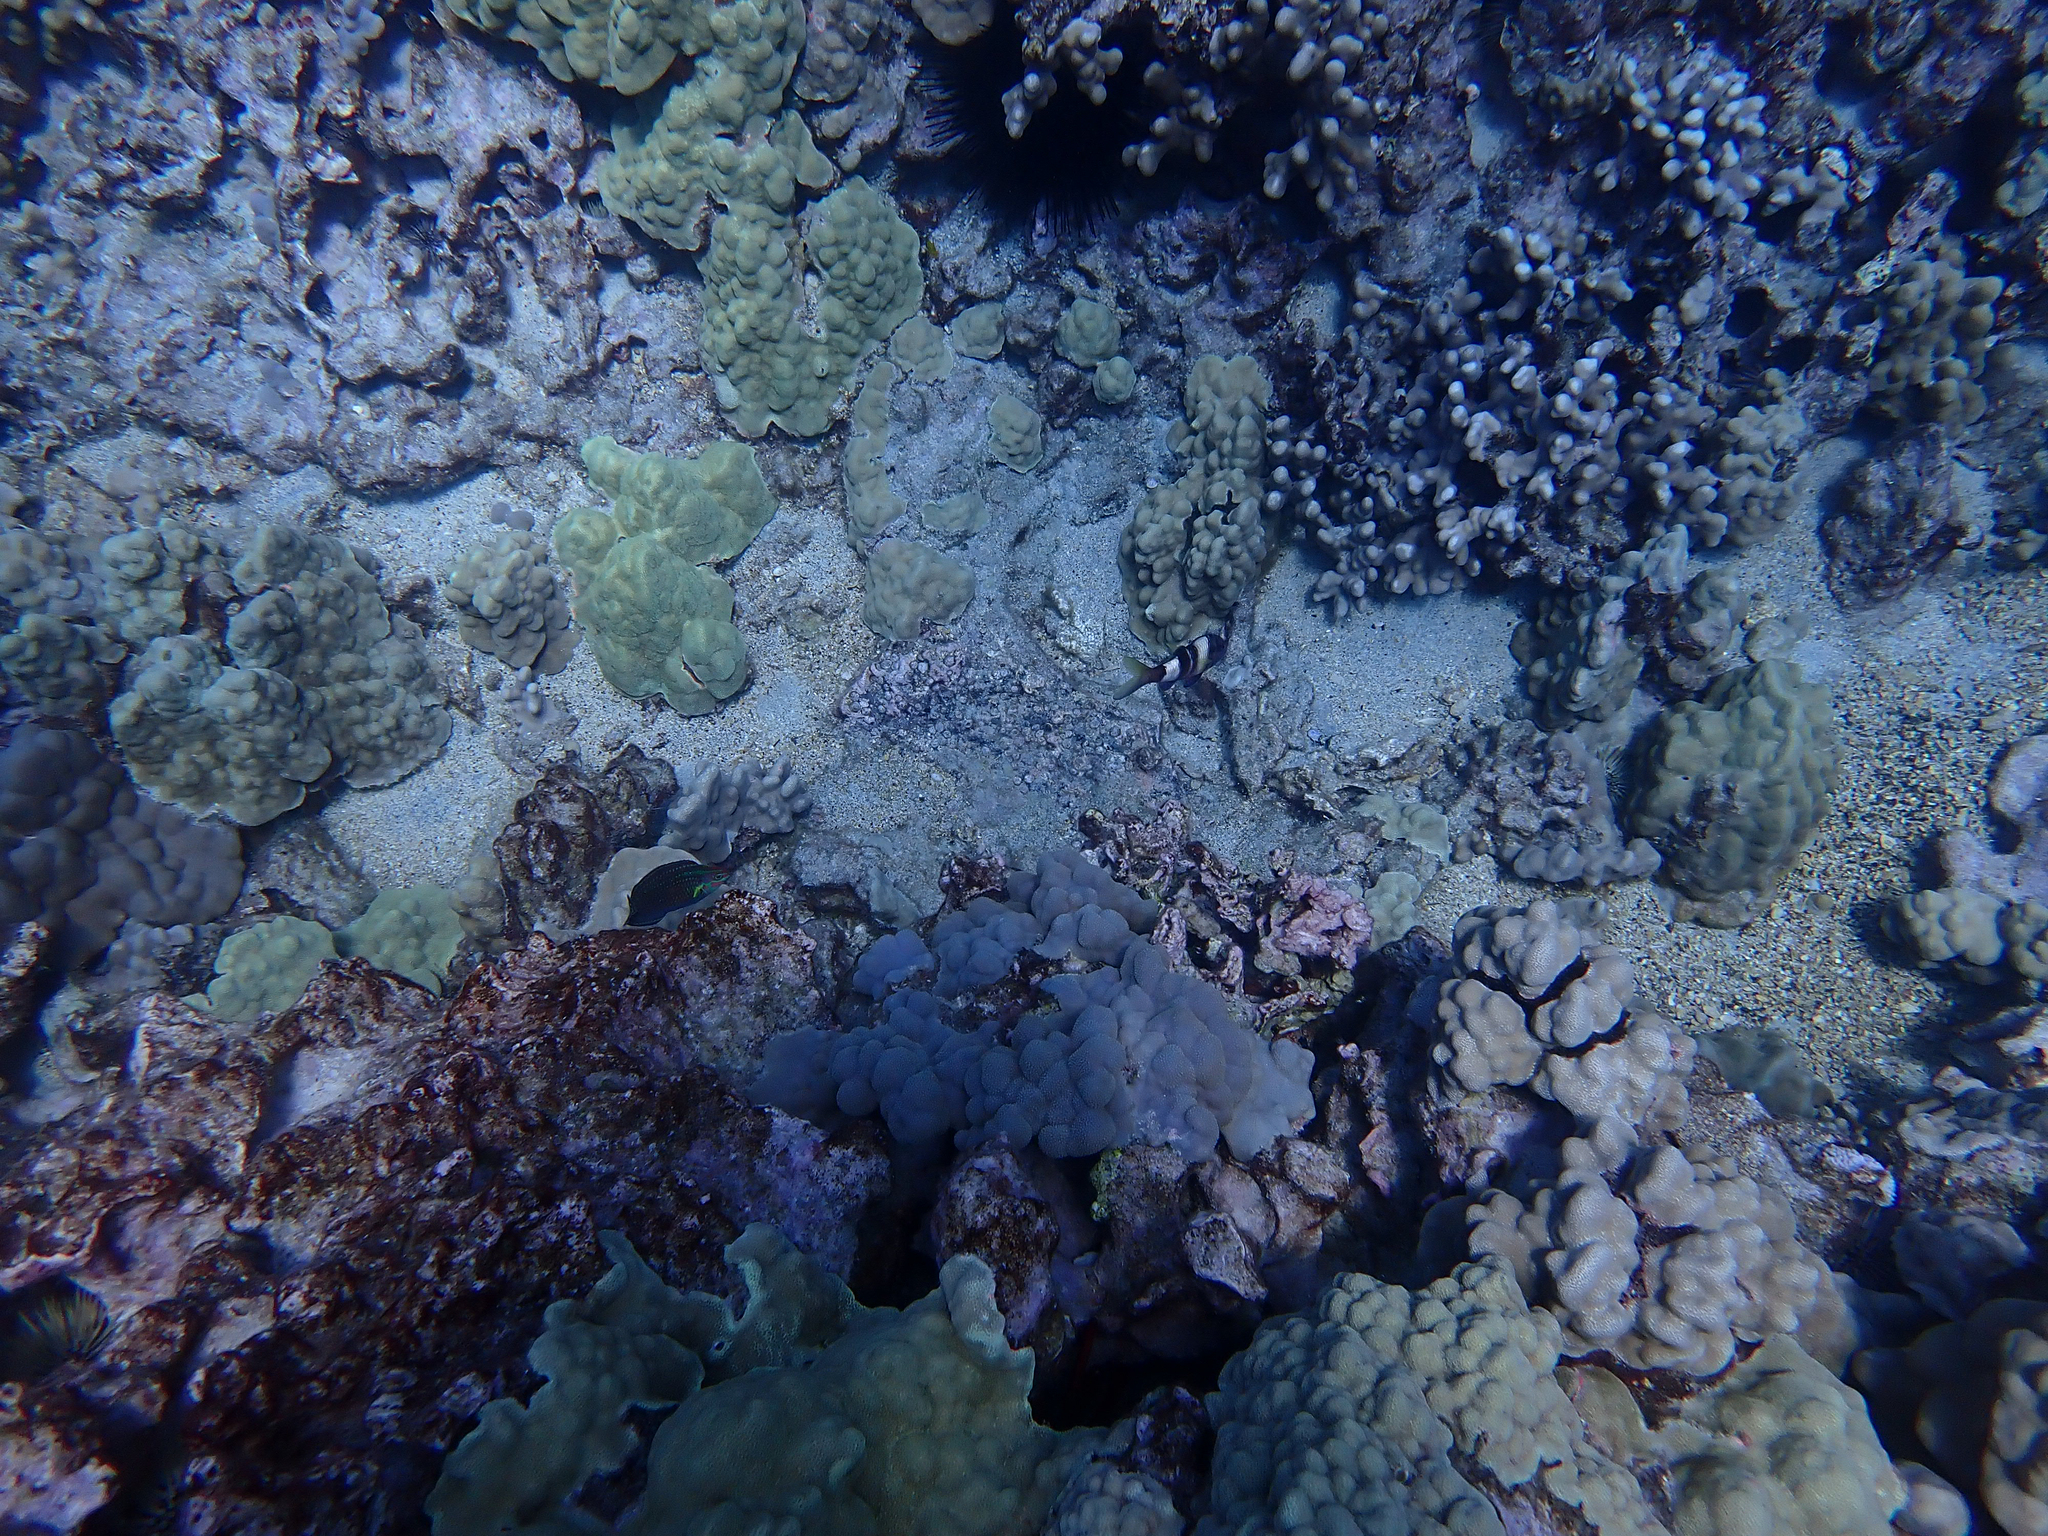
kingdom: Animalia
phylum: Chordata
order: Perciformes
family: Mullidae
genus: Parupeneus
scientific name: Parupeneus multifasciatus
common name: Manybar goatfish
